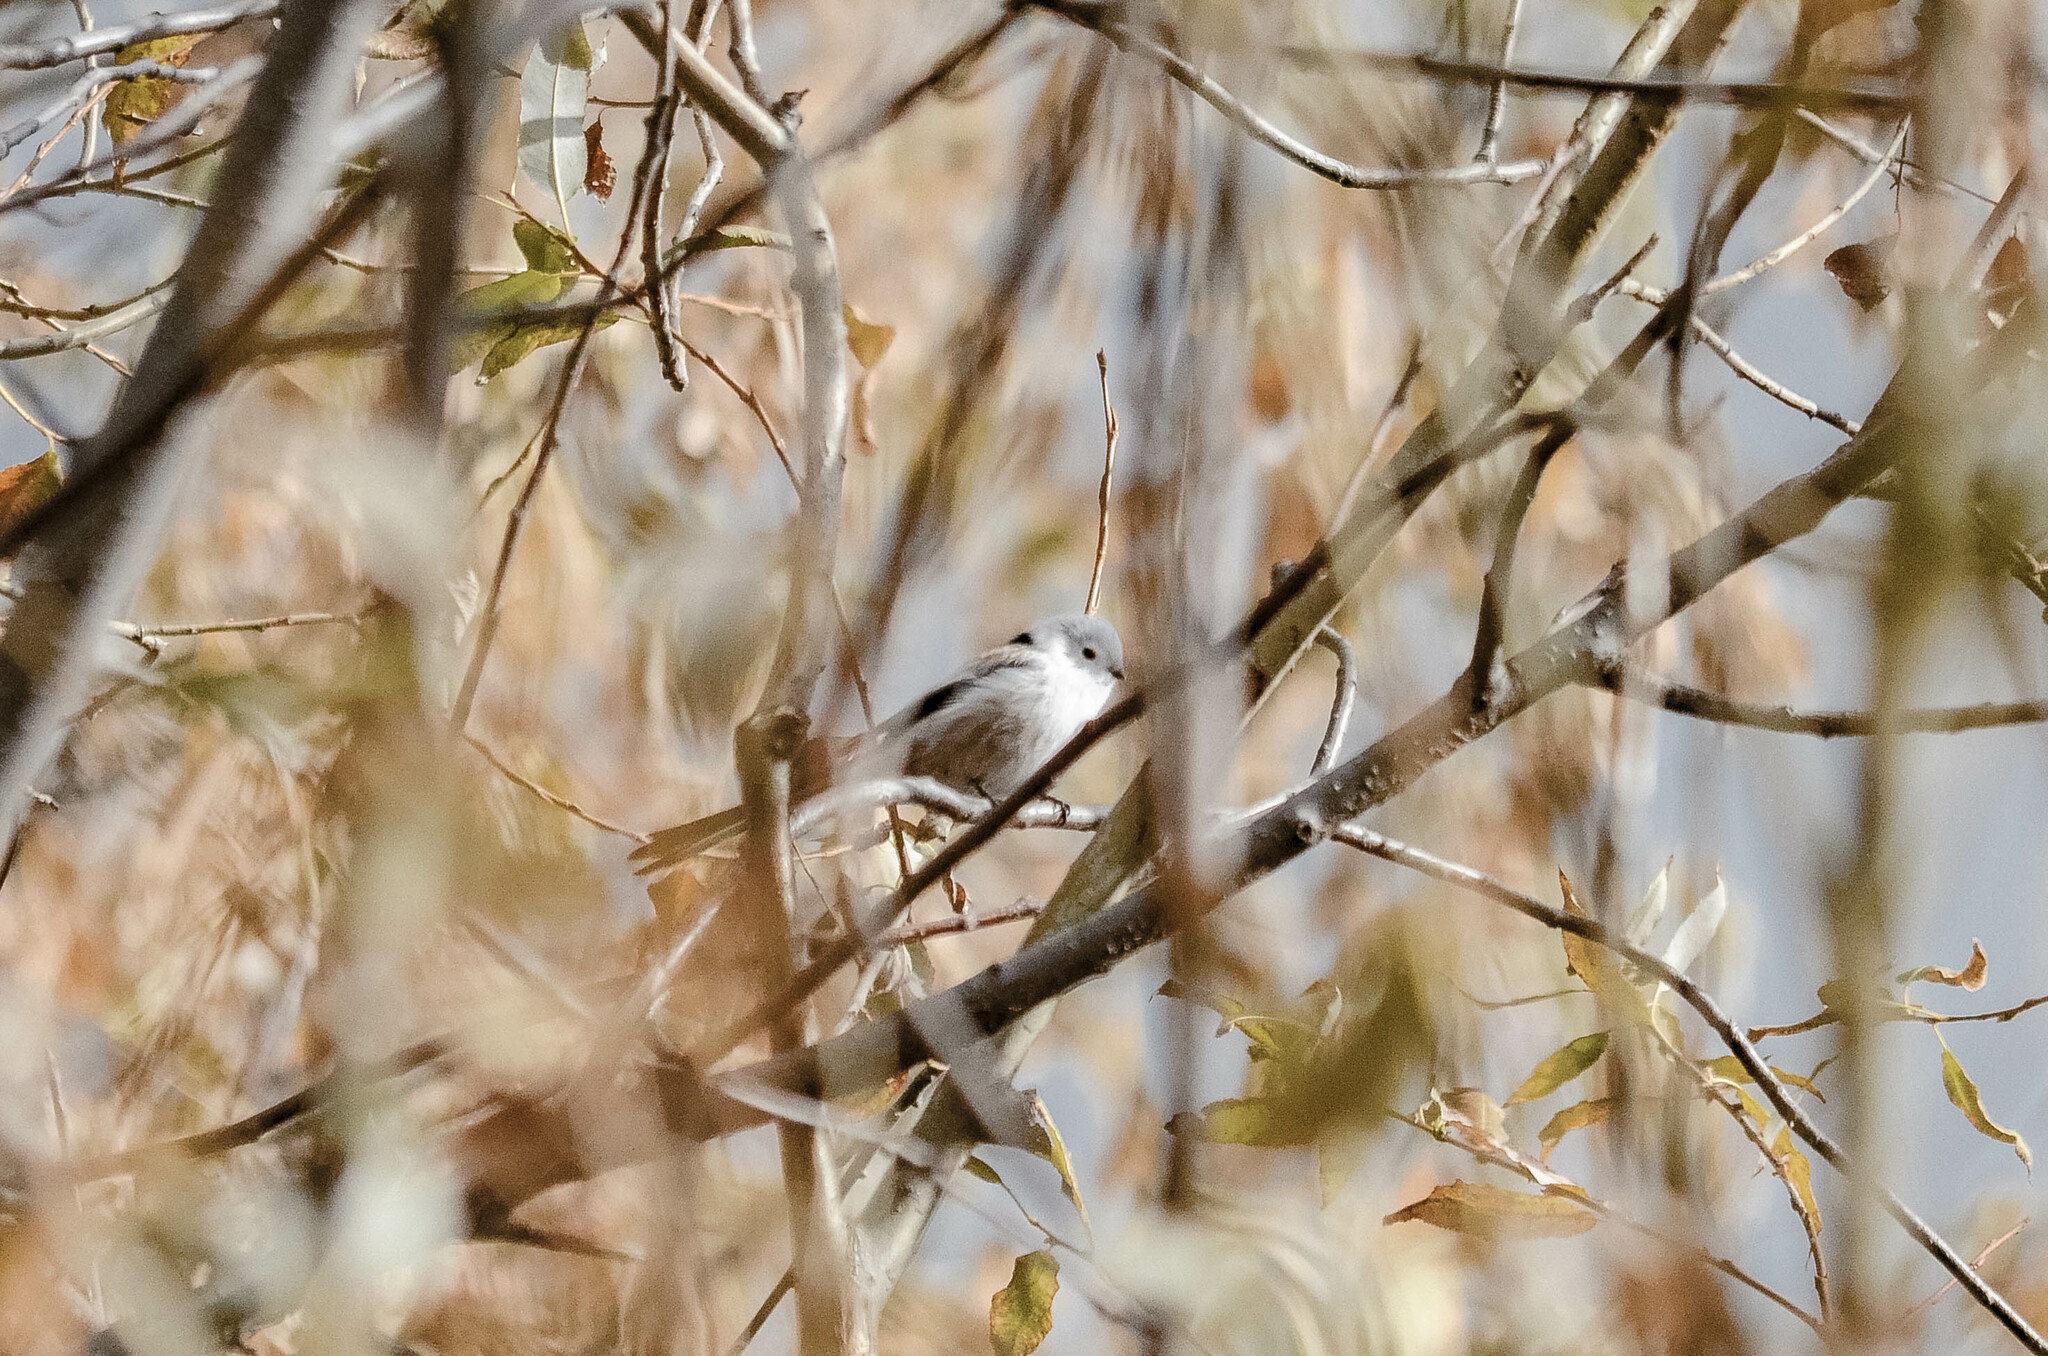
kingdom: Animalia
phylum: Chordata
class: Aves
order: Passeriformes
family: Aegithalidae
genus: Aegithalos
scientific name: Aegithalos caudatus
